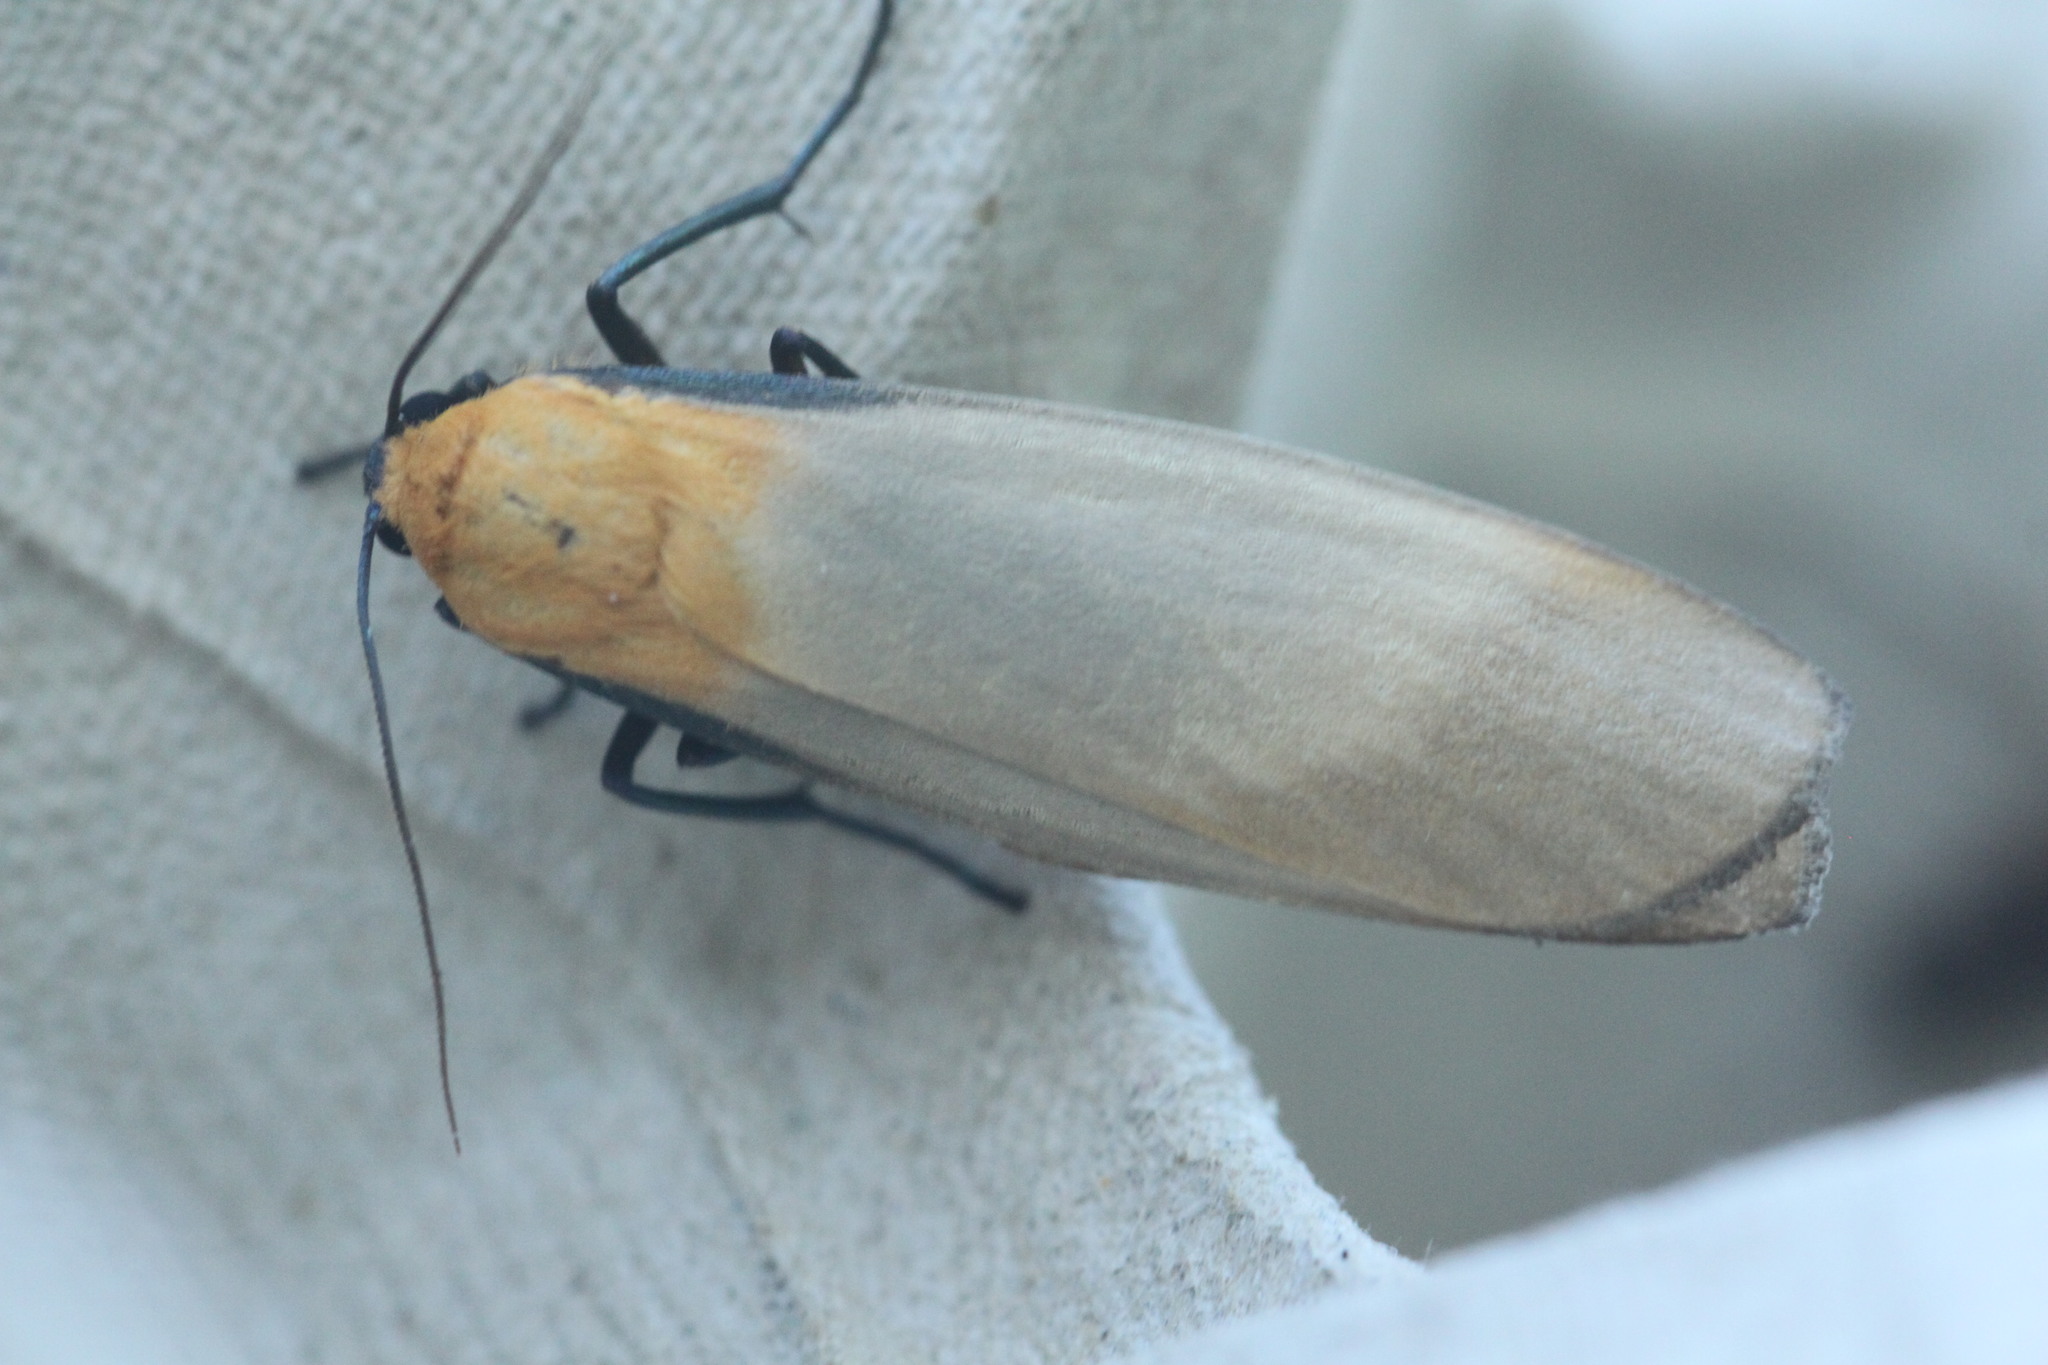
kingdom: Animalia
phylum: Arthropoda
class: Insecta
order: Lepidoptera
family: Erebidae
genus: Lithosia
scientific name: Lithosia quadra
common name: Four-spotted footman
